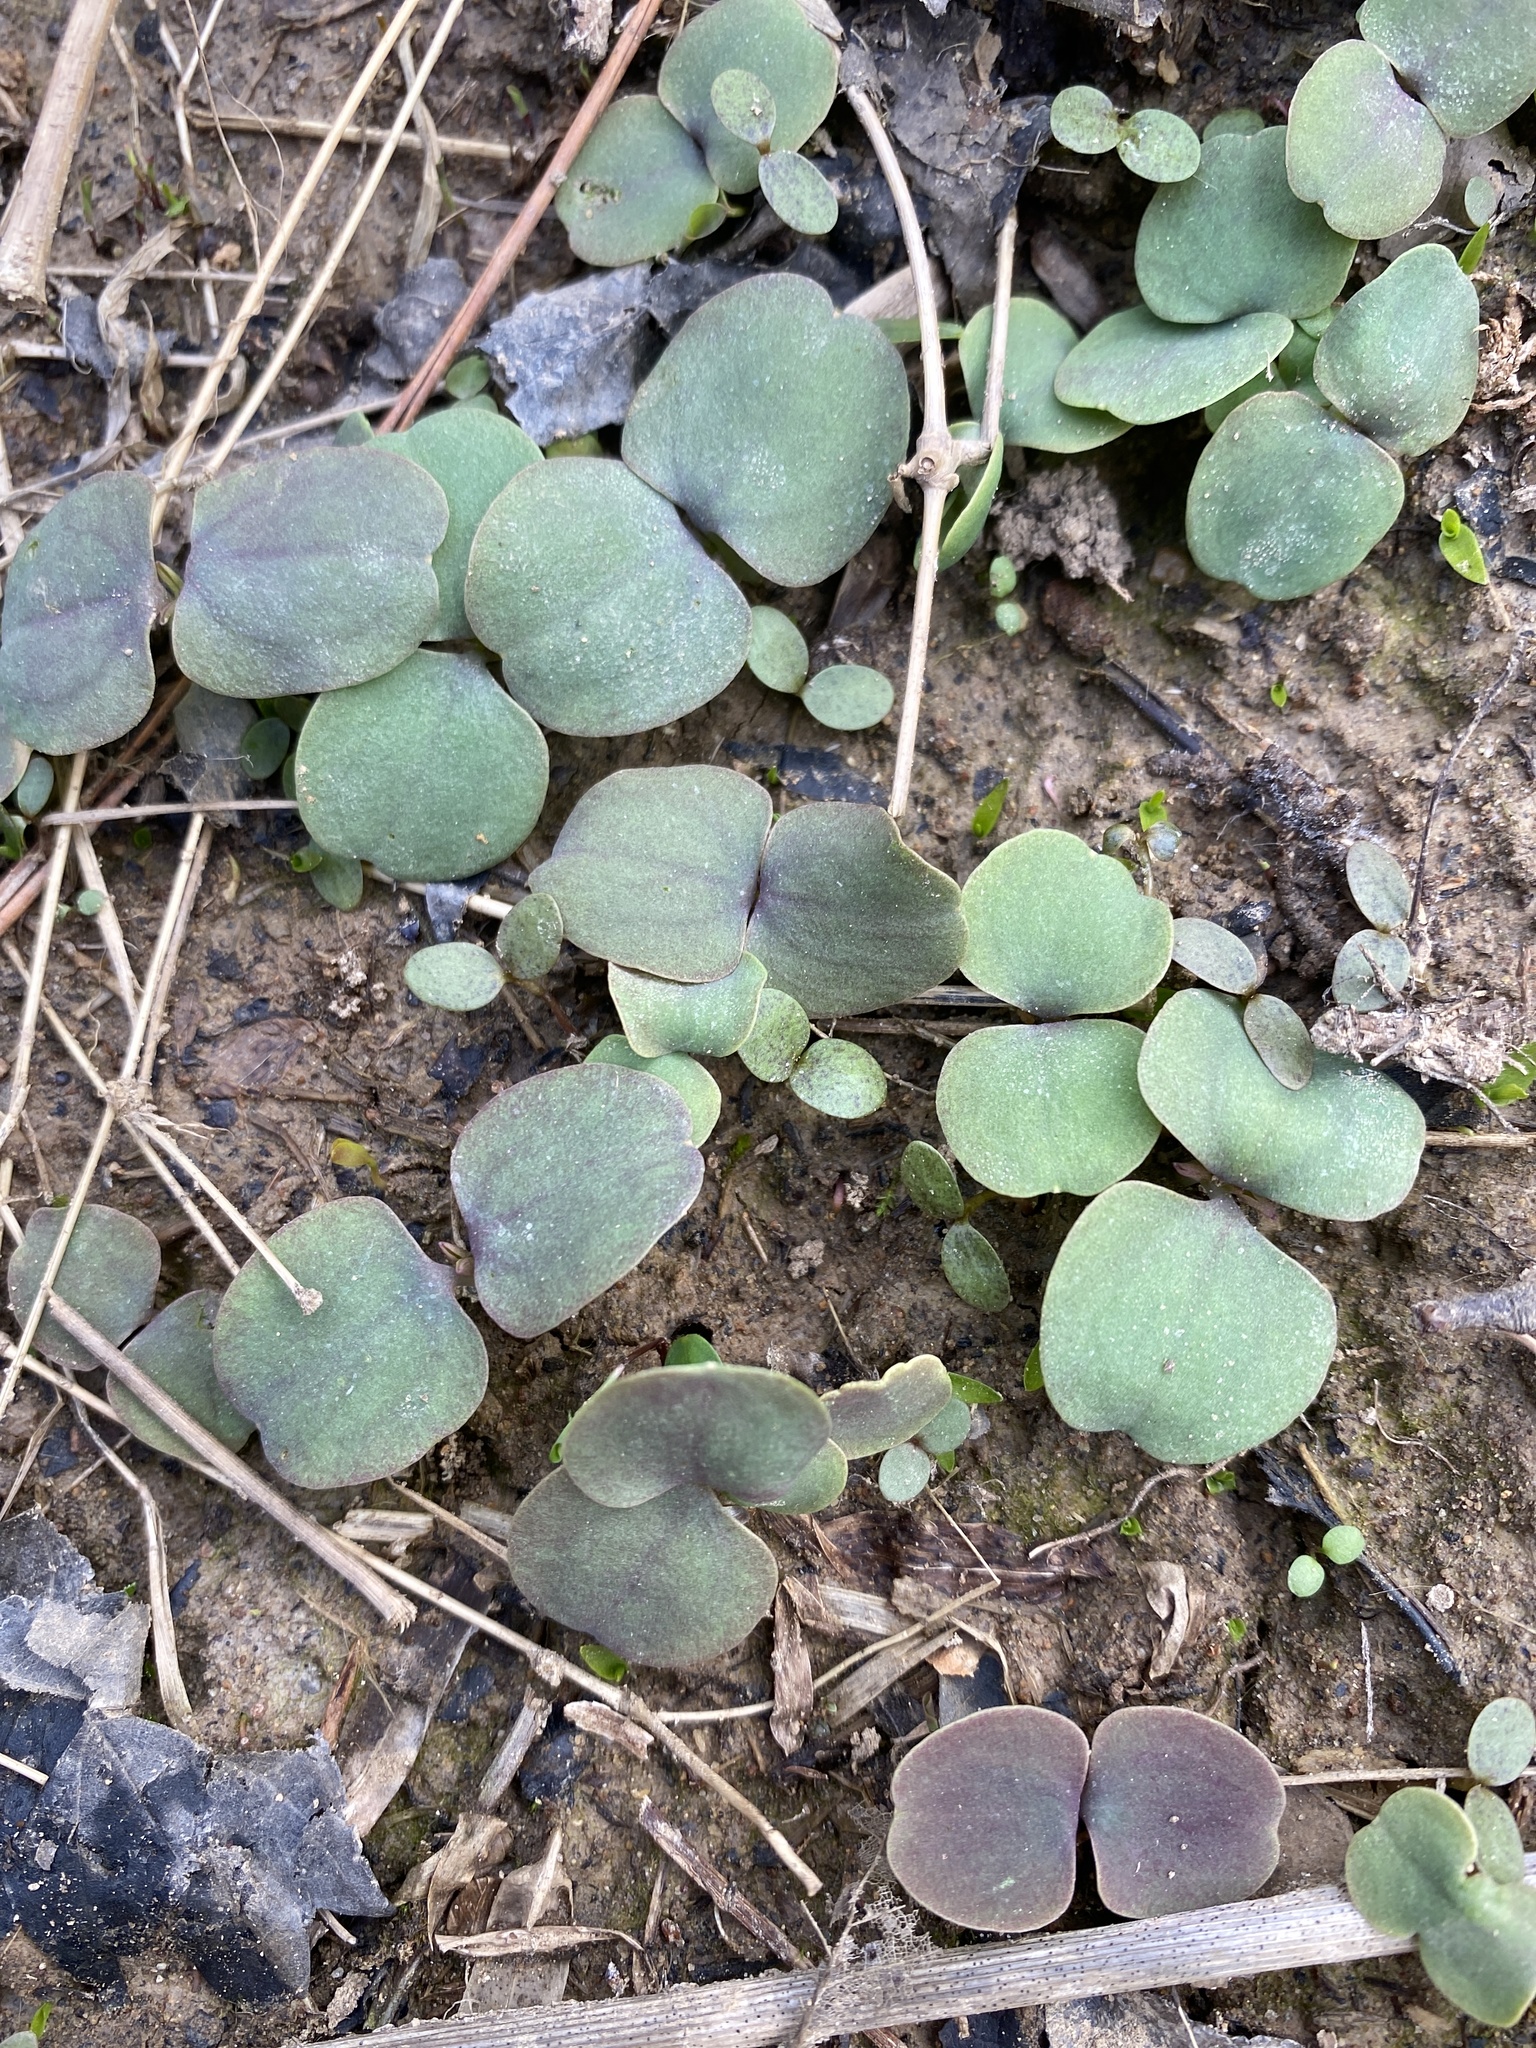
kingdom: Plantae
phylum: Tracheophyta
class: Magnoliopsida
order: Ericales
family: Balsaminaceae
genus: Impatiens
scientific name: Impatiens capensis
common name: Orange balsam
